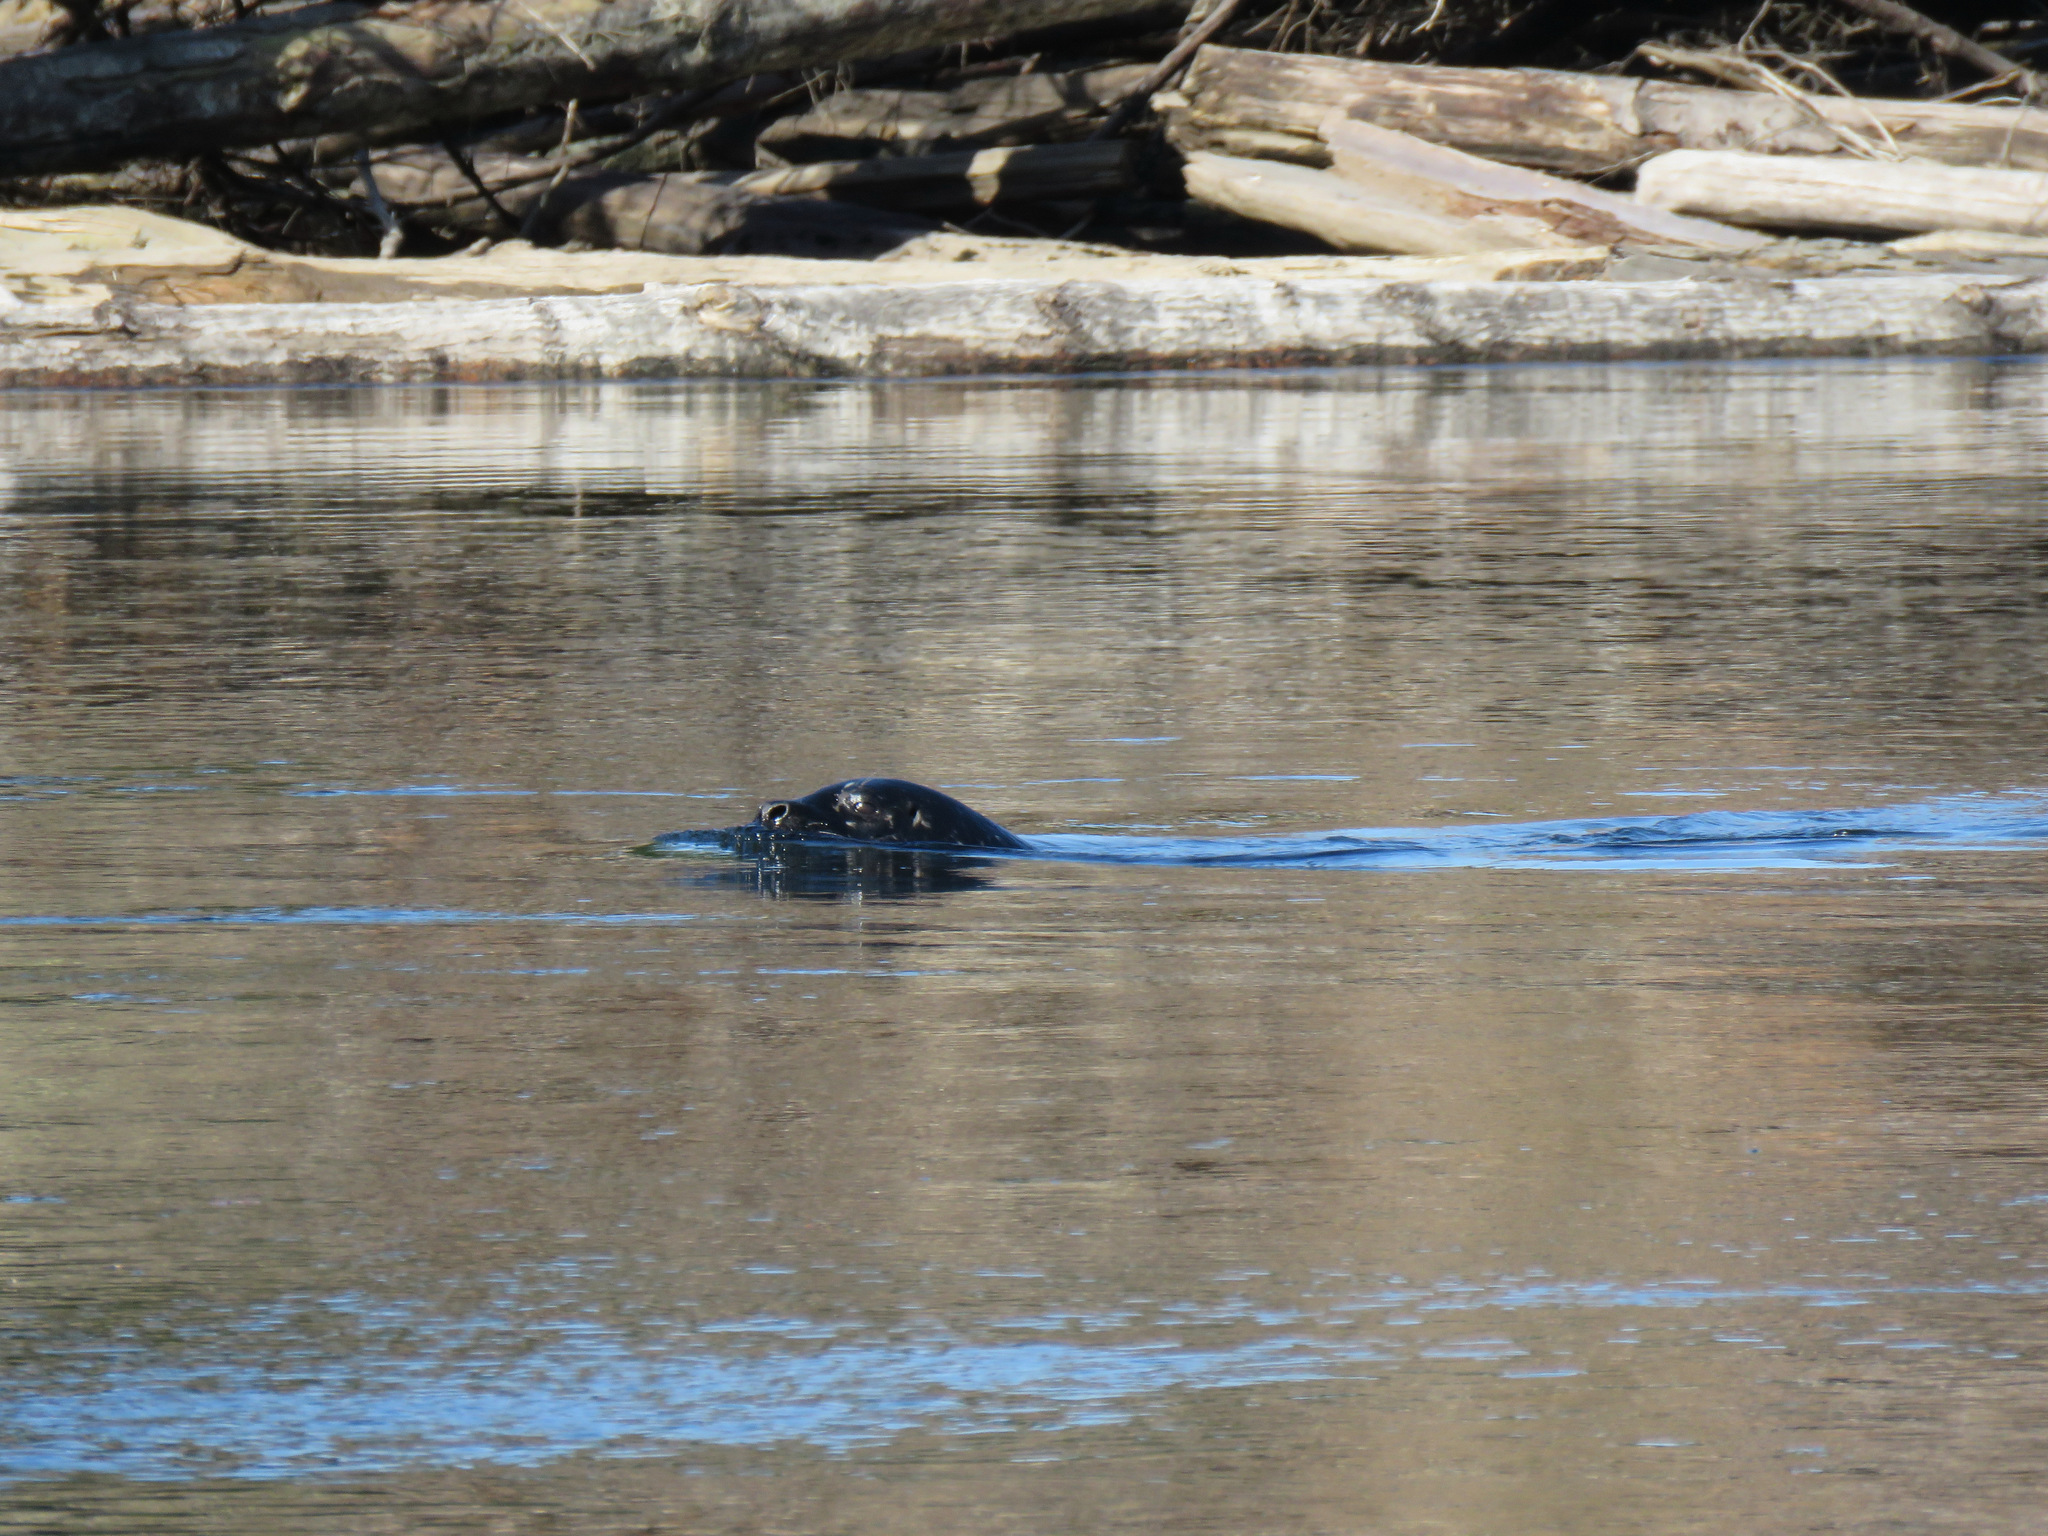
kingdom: Animalia
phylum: Chordata
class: Mammalia
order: Carnivora
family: Phocidae
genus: Phoca
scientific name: Phoca vitulina
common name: Harbor seal
